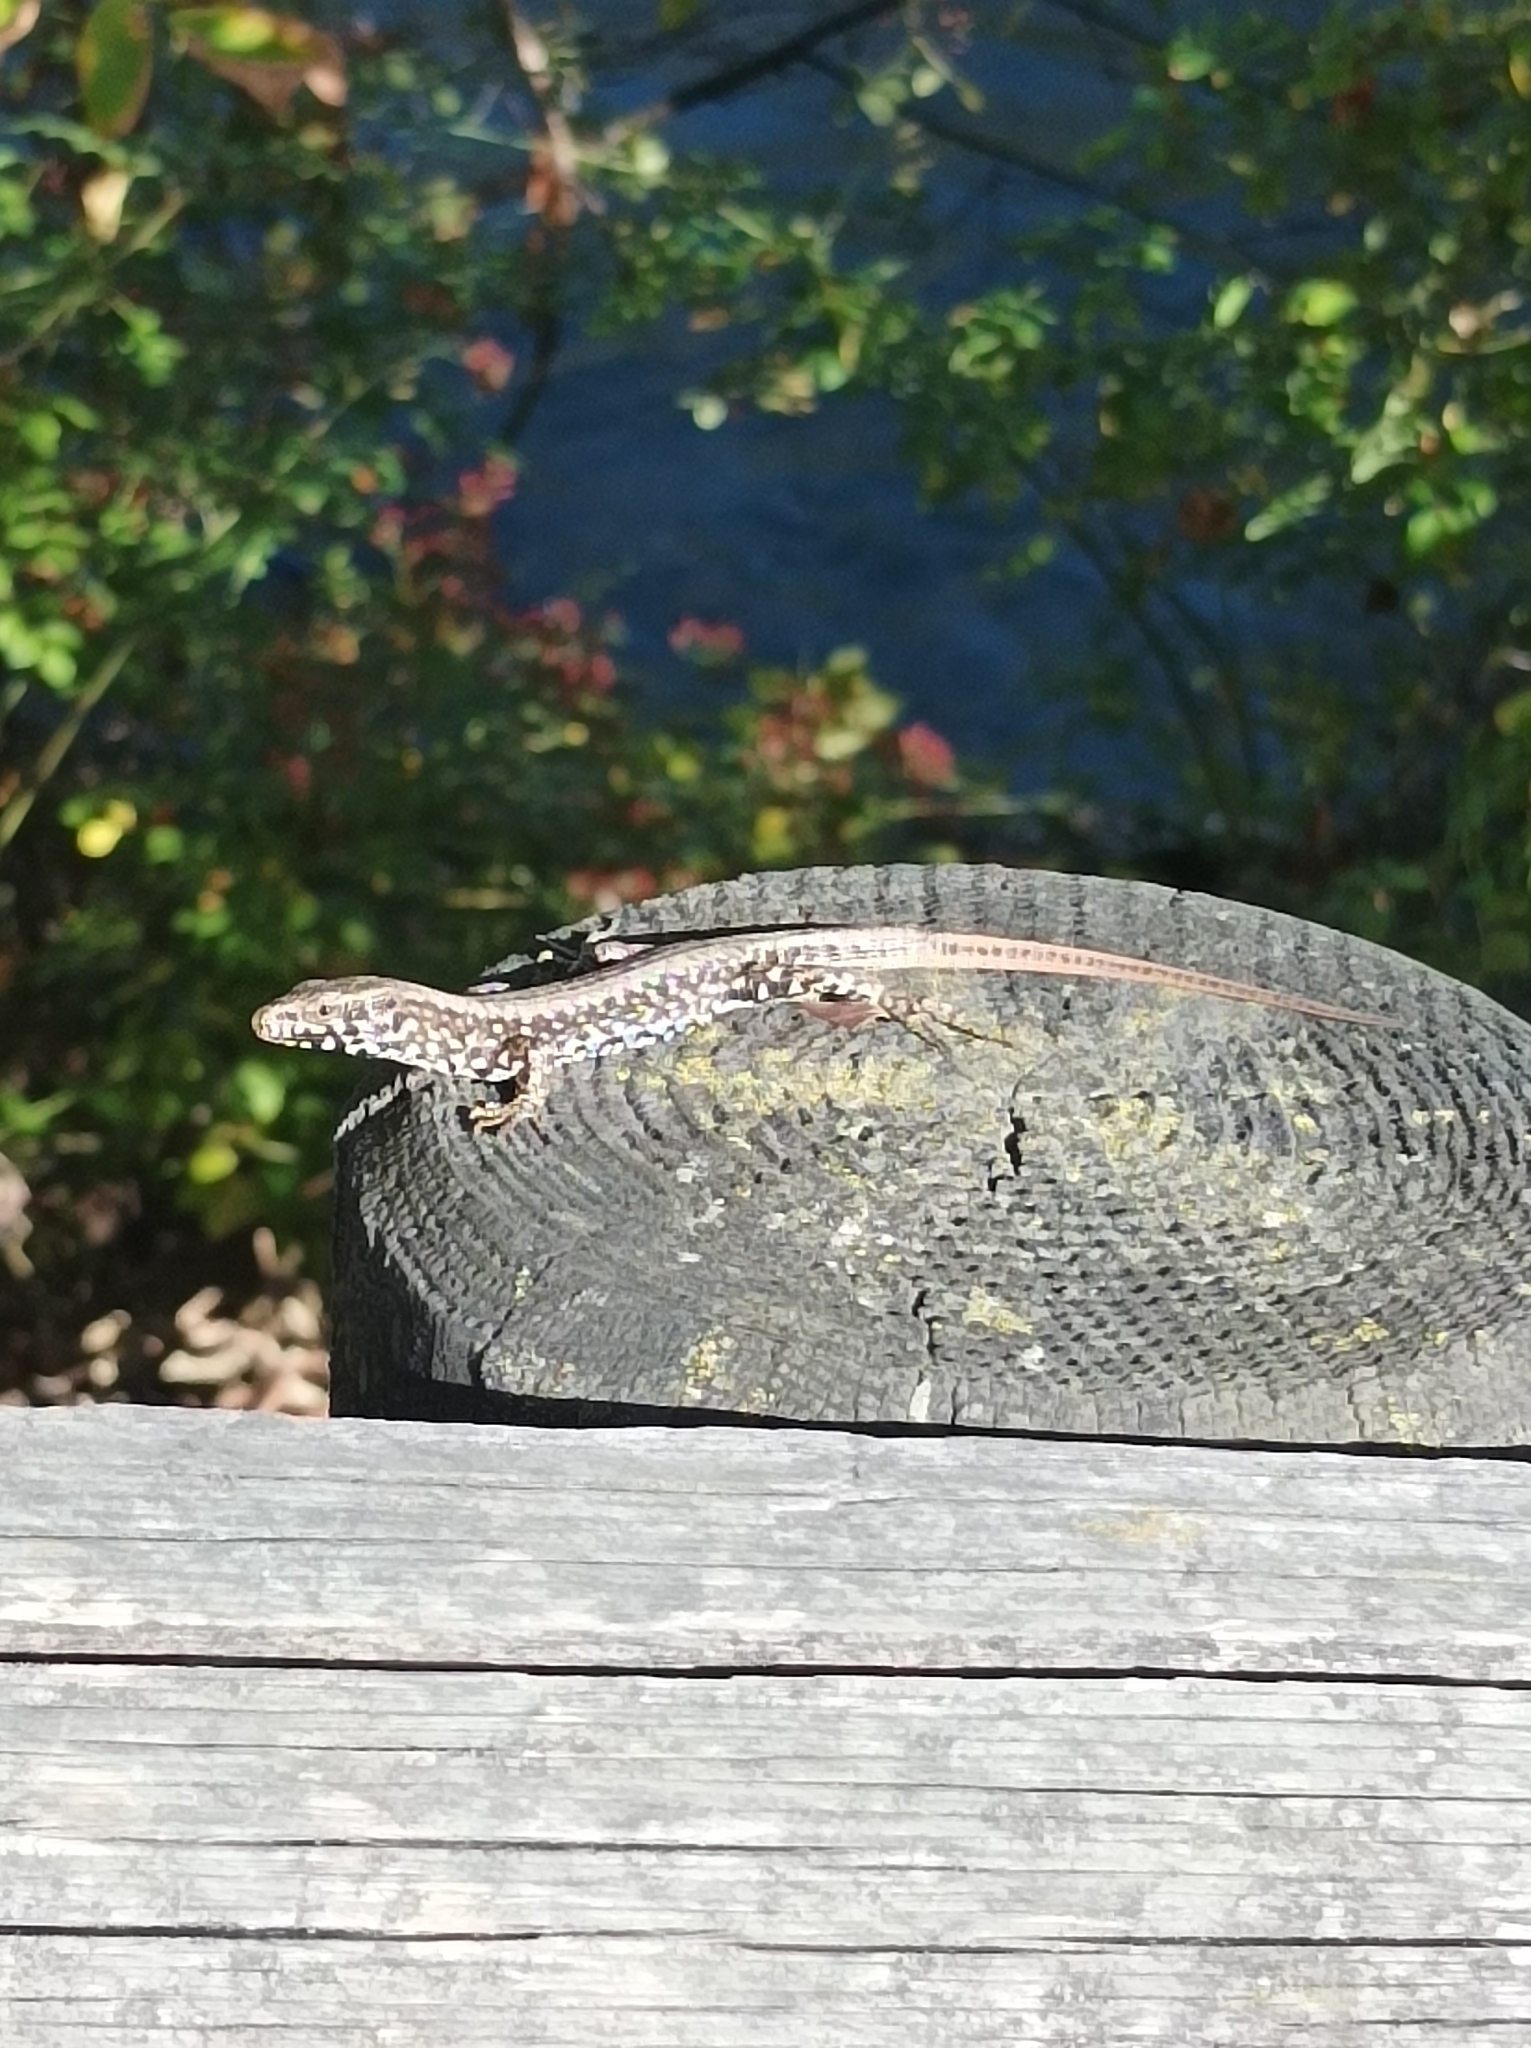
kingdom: Animalia
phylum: Chordata
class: Squamata
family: Lacertidae
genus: Podarcis
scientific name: Podarcis muralis
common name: Common wall lizard
